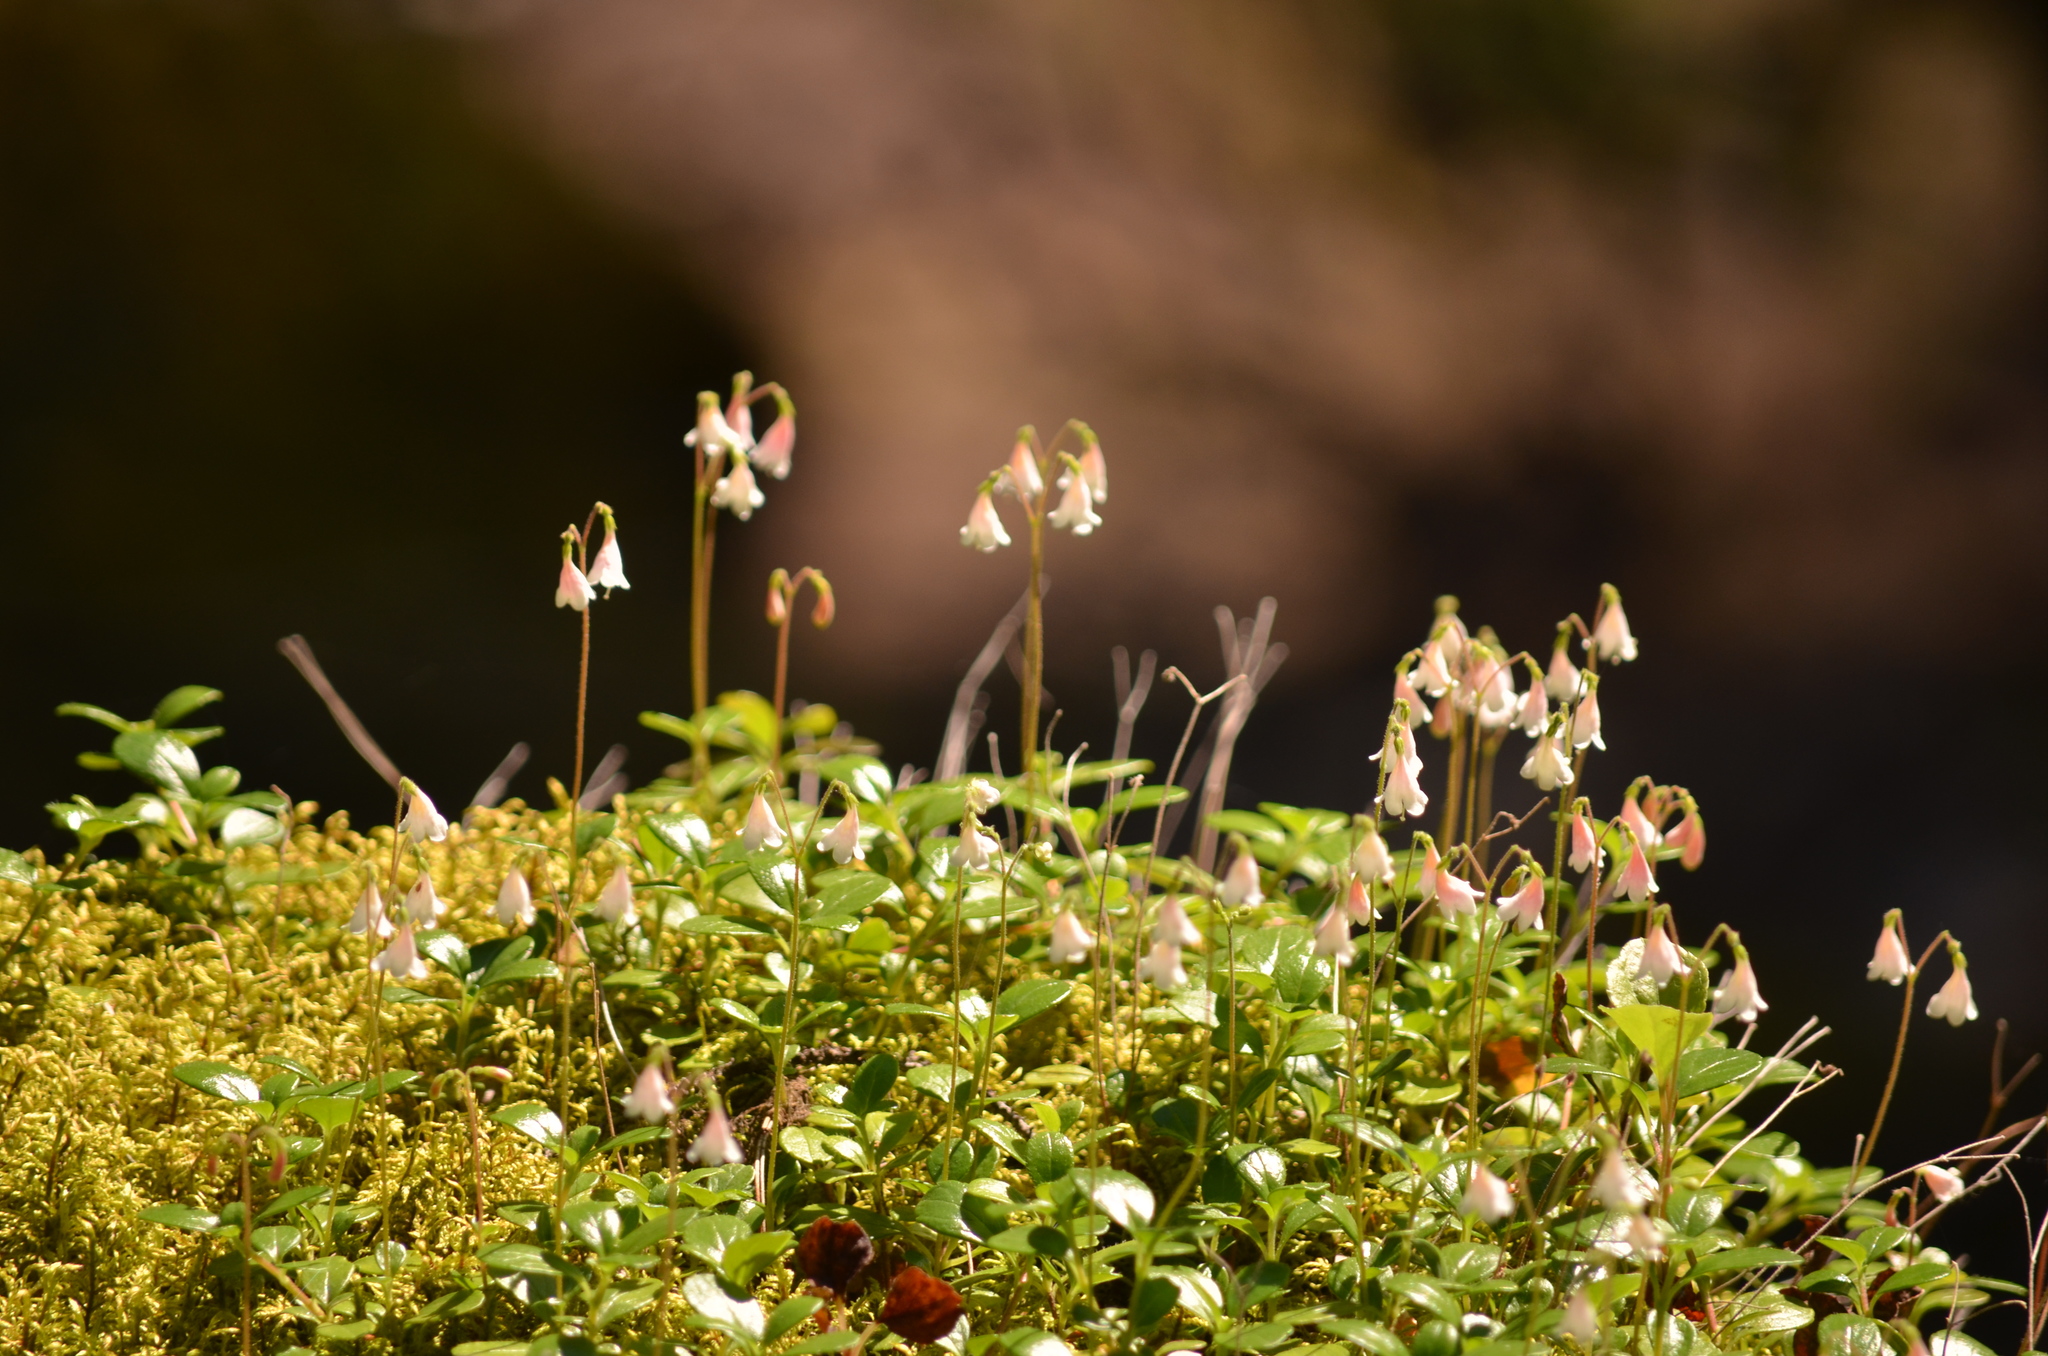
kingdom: Plantae
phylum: Tracheophyta
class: Magnoliopsida
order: Dipsacales
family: Caprifoliaceae
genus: Linnaea
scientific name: Linnaea borealis
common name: Twinflower
